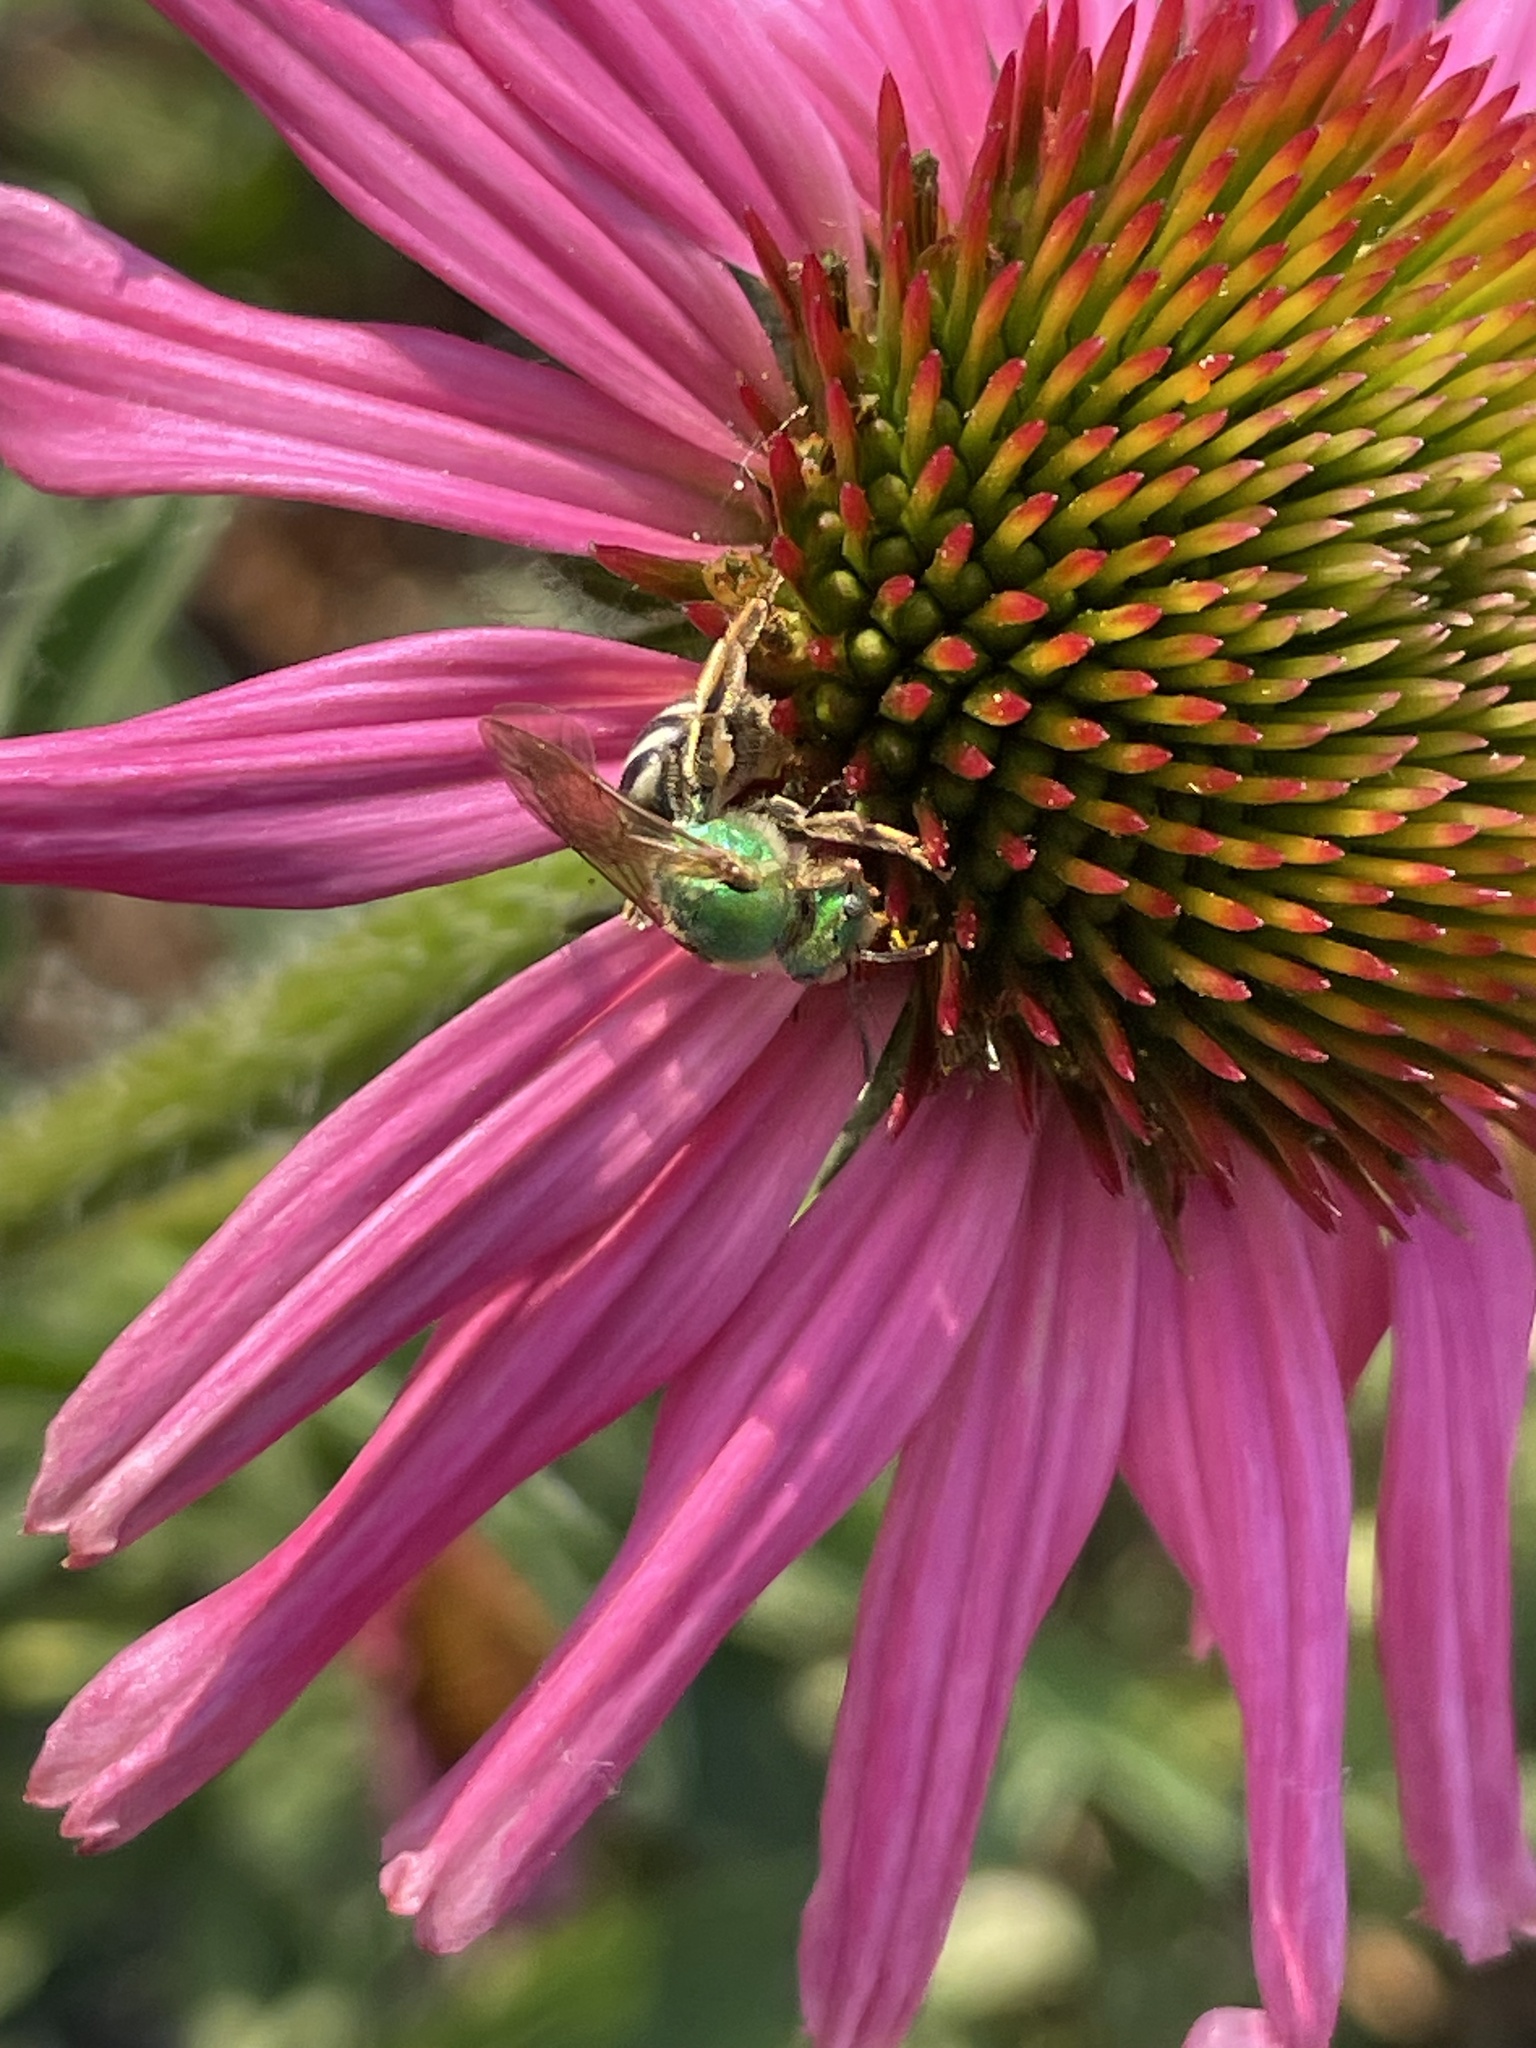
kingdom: Animalia
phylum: Arthropoda
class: Insecta
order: Hymenoptera
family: Halictidae
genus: Agapostemon
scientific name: Agapostemon virescens
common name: Bicolored striped sweat bee
